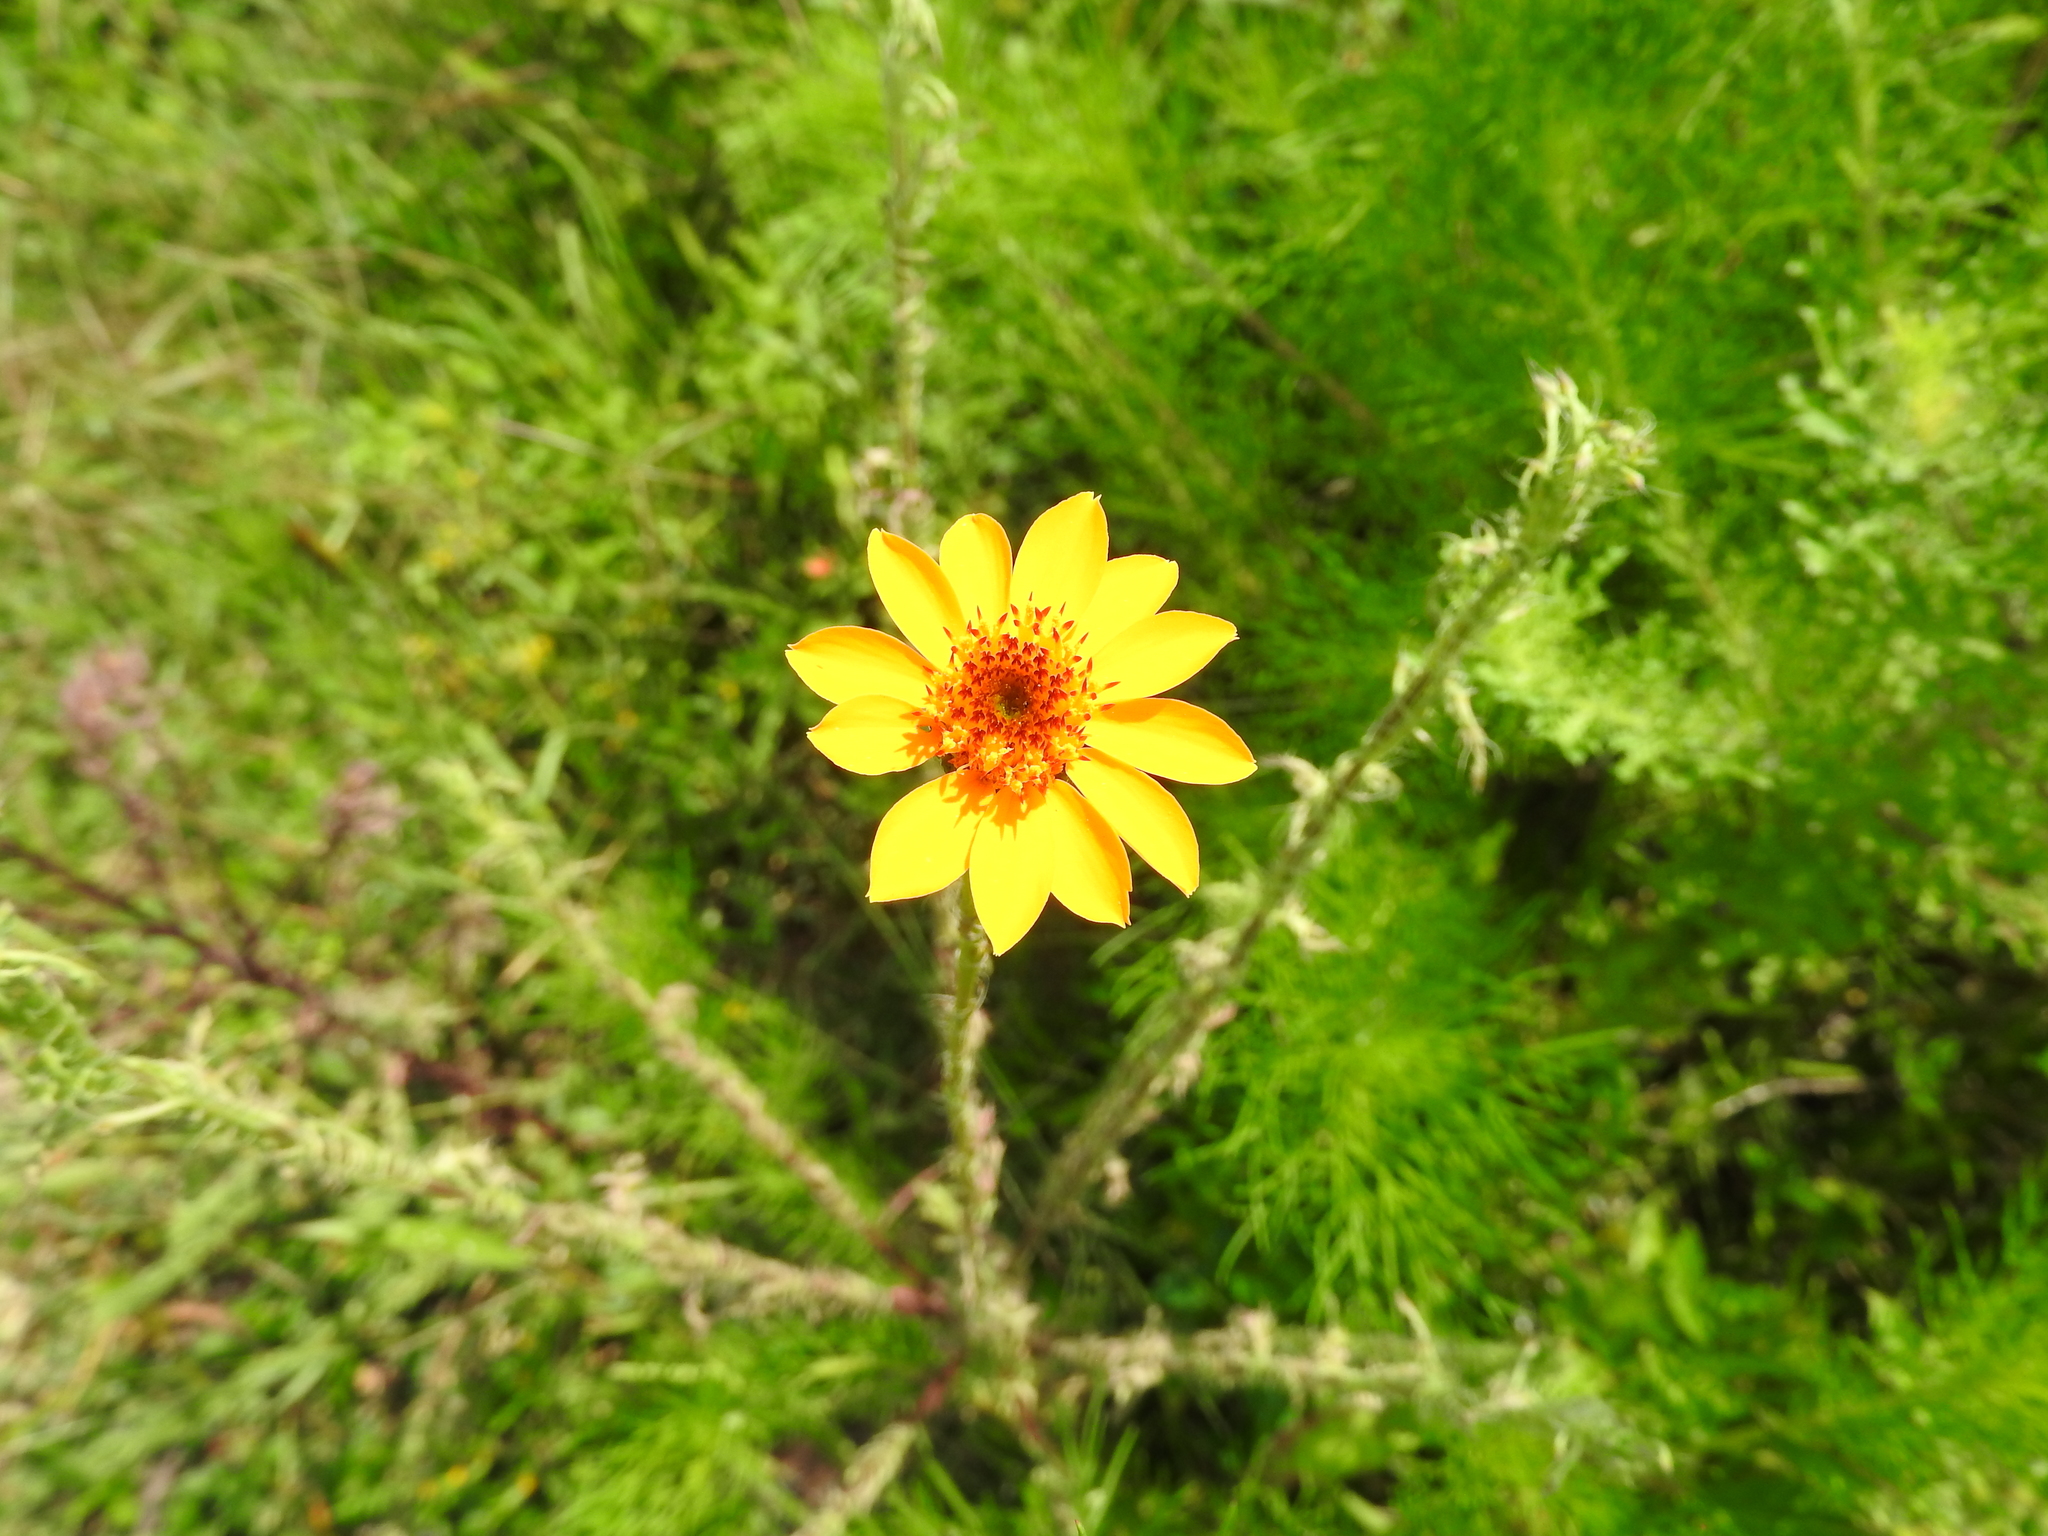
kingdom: Plantae
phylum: Tracheophyta
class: Magnoliopsida
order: Asterales
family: Asteraceae
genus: Adenophyllum
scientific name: Adenophyllum cancellatum
